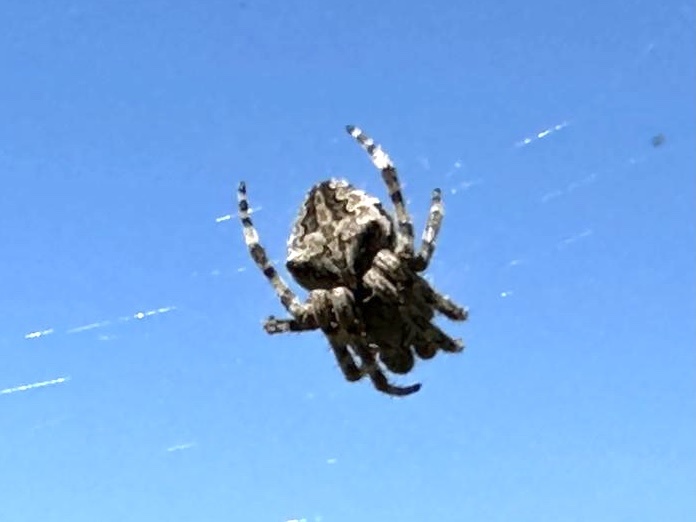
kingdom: Animalia
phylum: Arthropoda
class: Arachnida
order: Araneae
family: Araneidae
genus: Araneus
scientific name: Araneus
